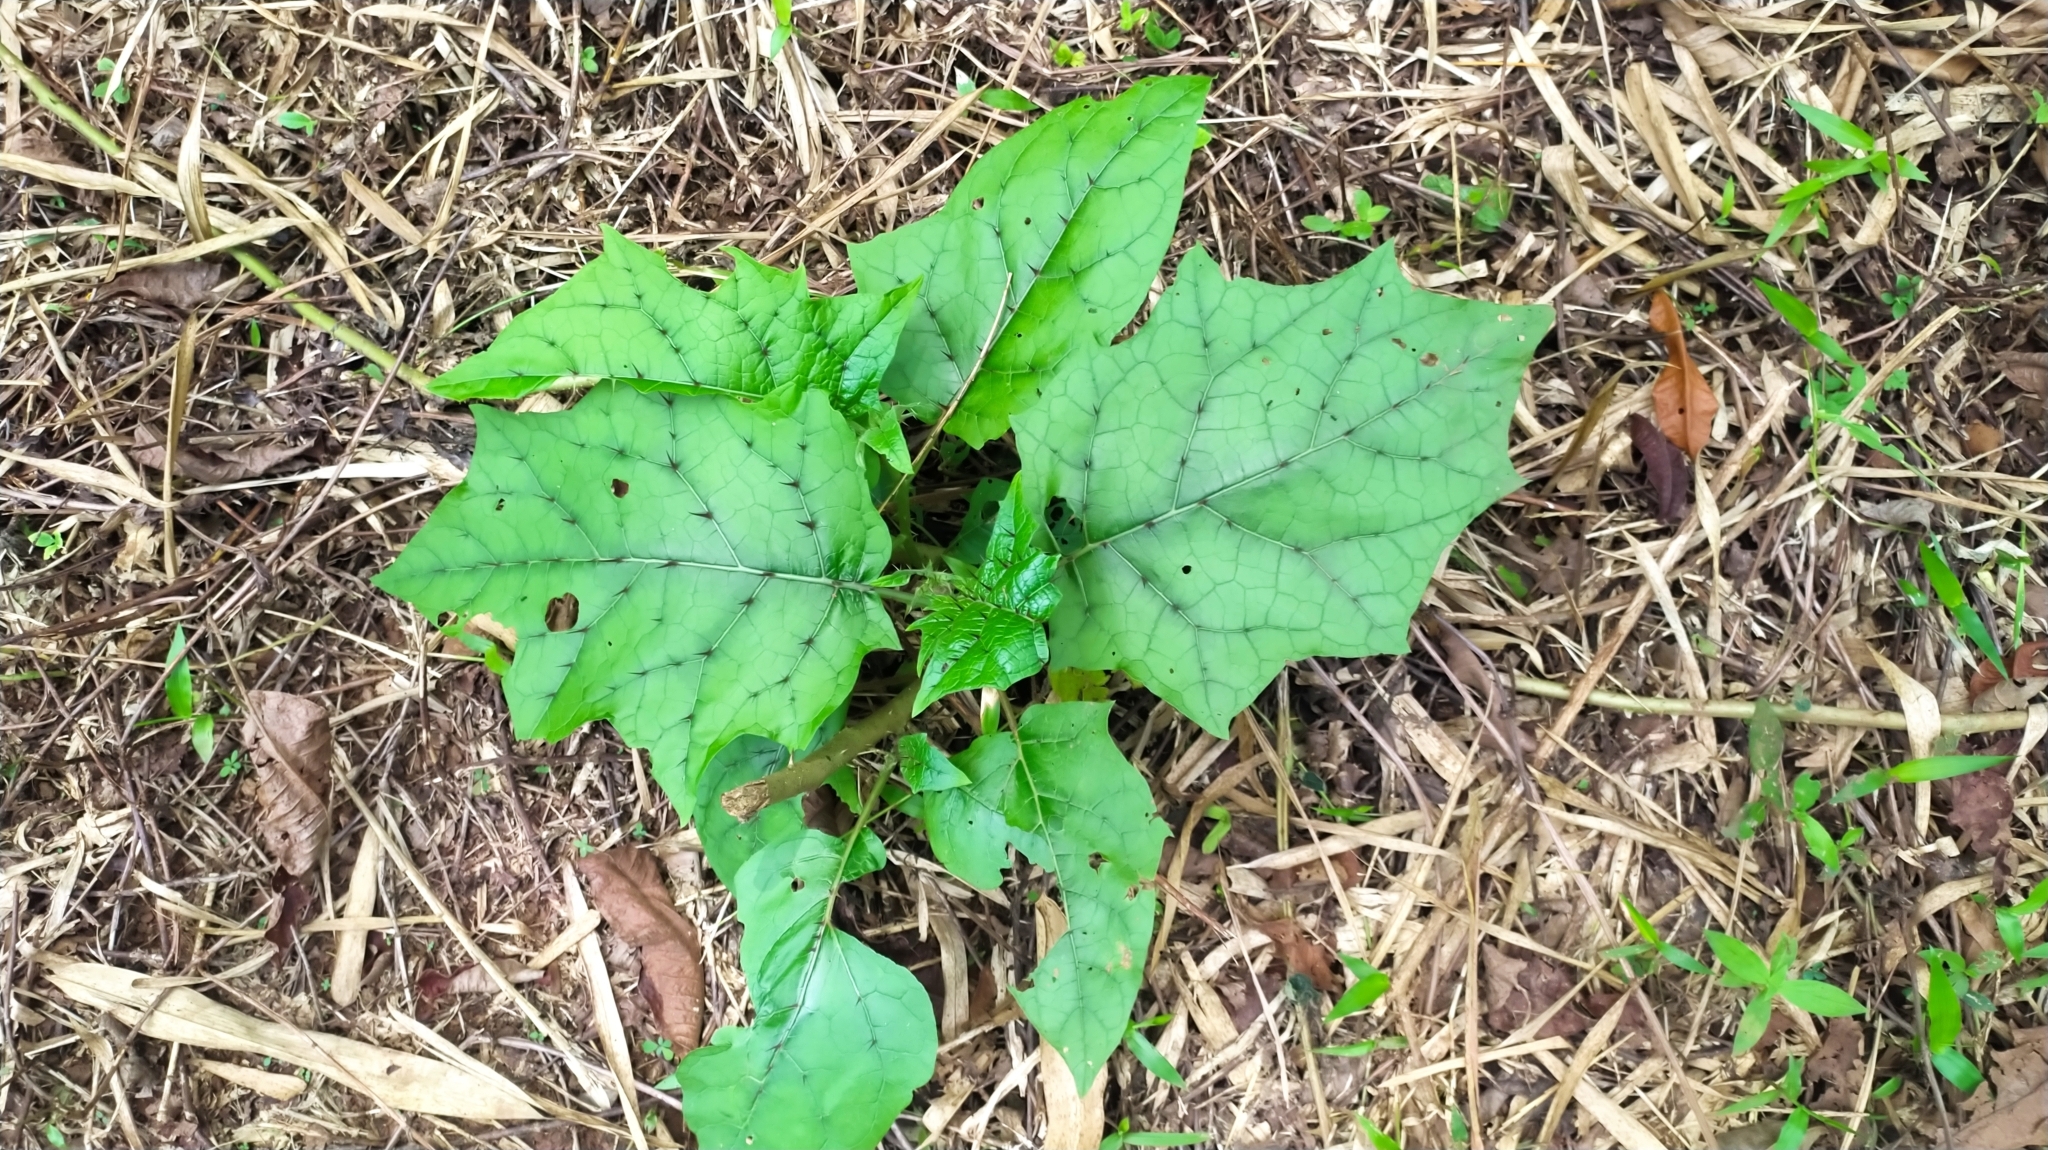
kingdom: Plantae
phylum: Tracheophyta
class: Magnoliopsida
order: Solanales
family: Solanaceae
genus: Solanum
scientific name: Solanum
